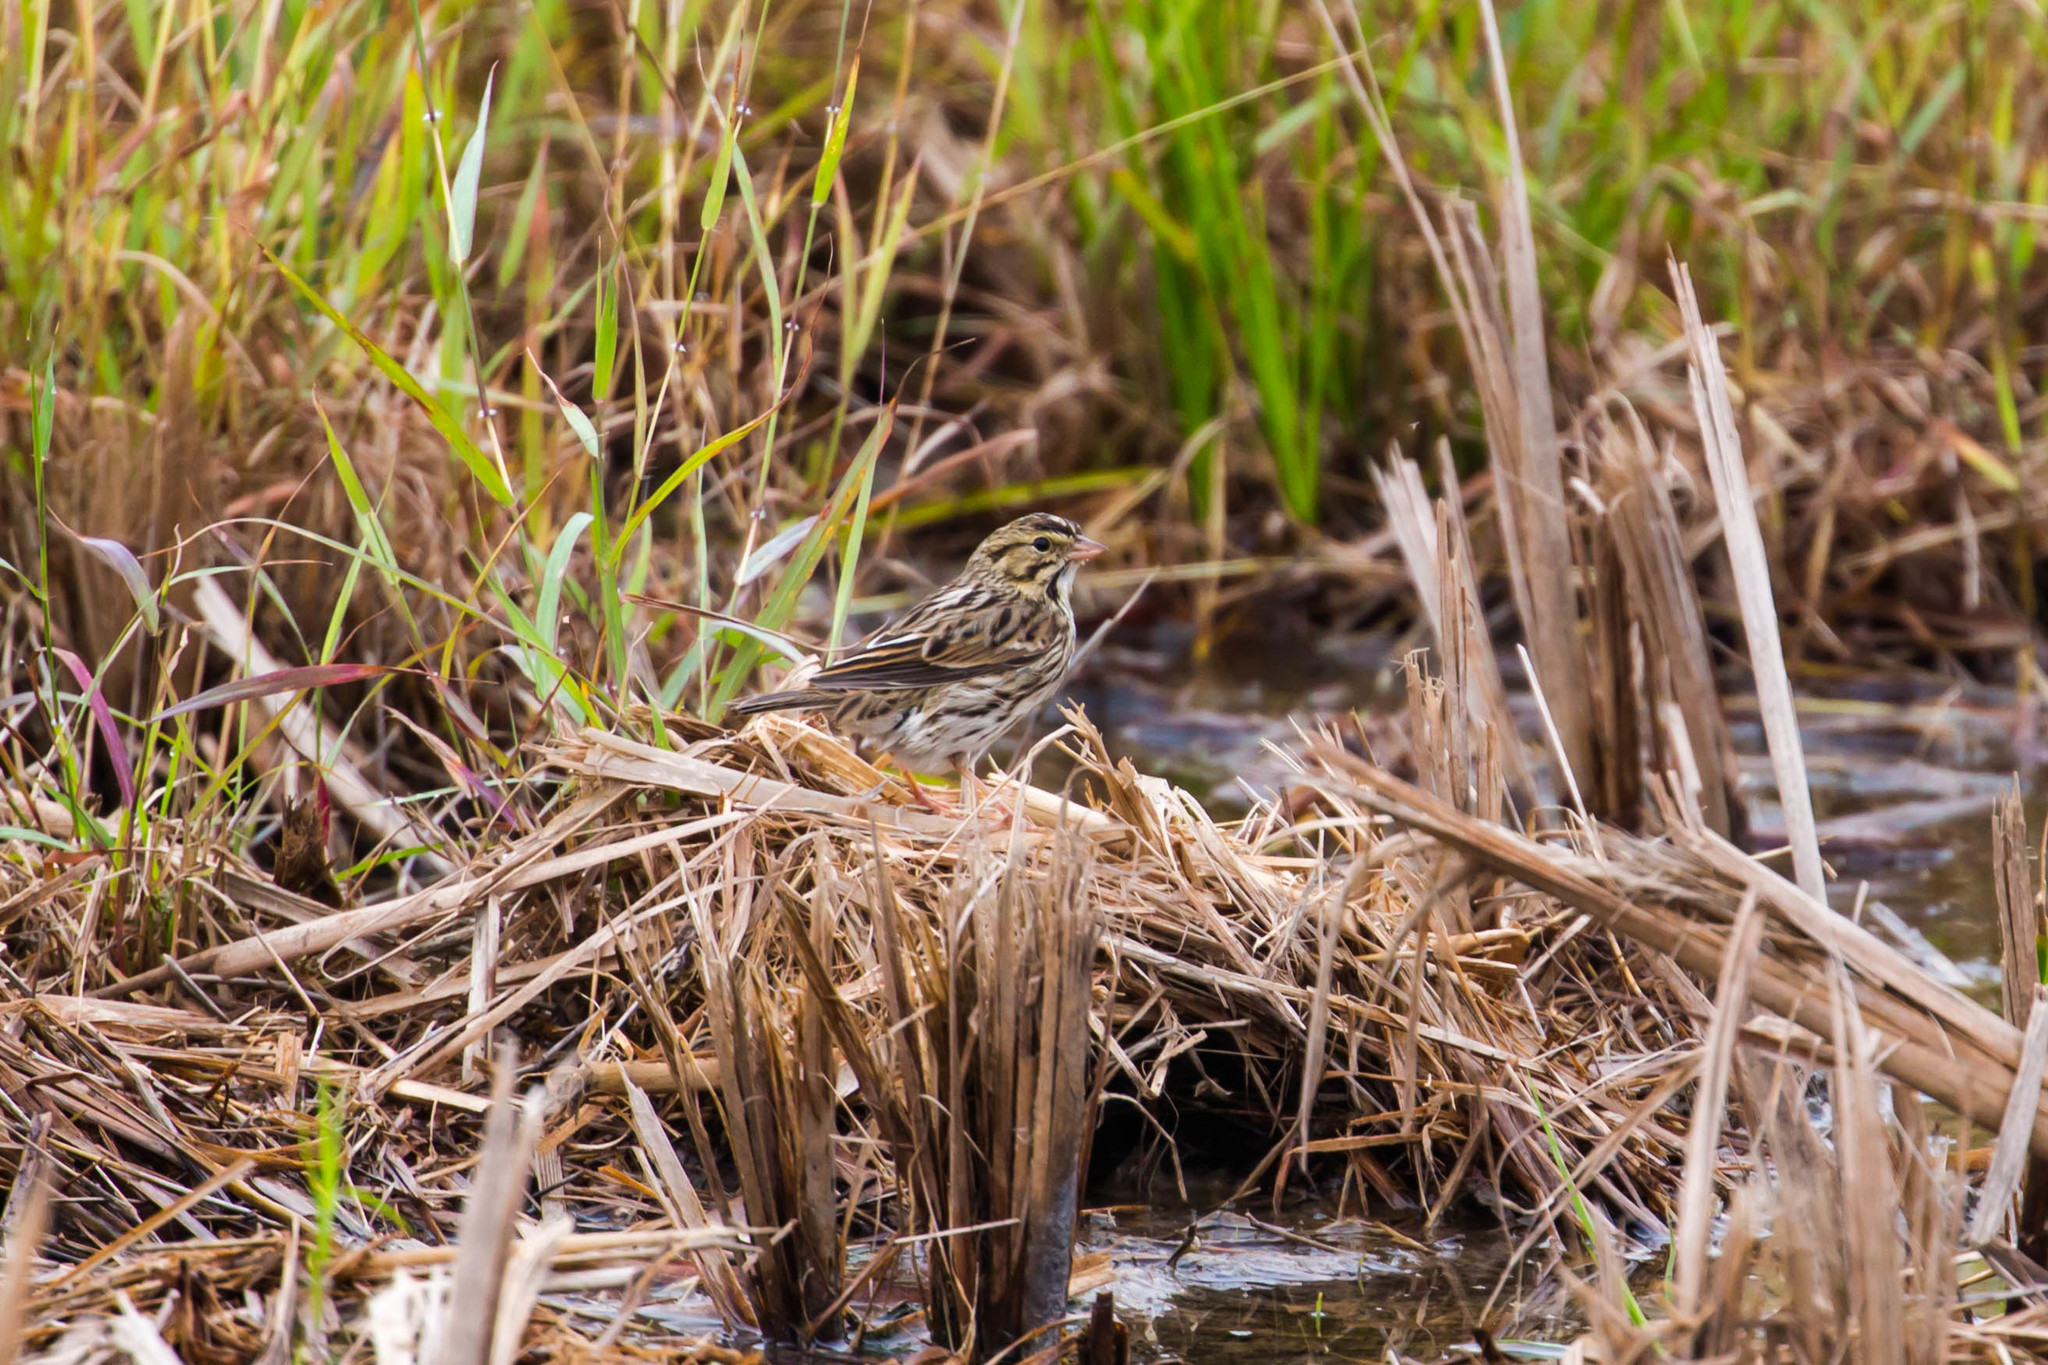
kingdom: Animalia
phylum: Chordata
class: Aves
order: Passeriformes
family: Passerellidae
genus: Passerculus
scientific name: Passerculus sandwichensis
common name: Savannah sparrow
